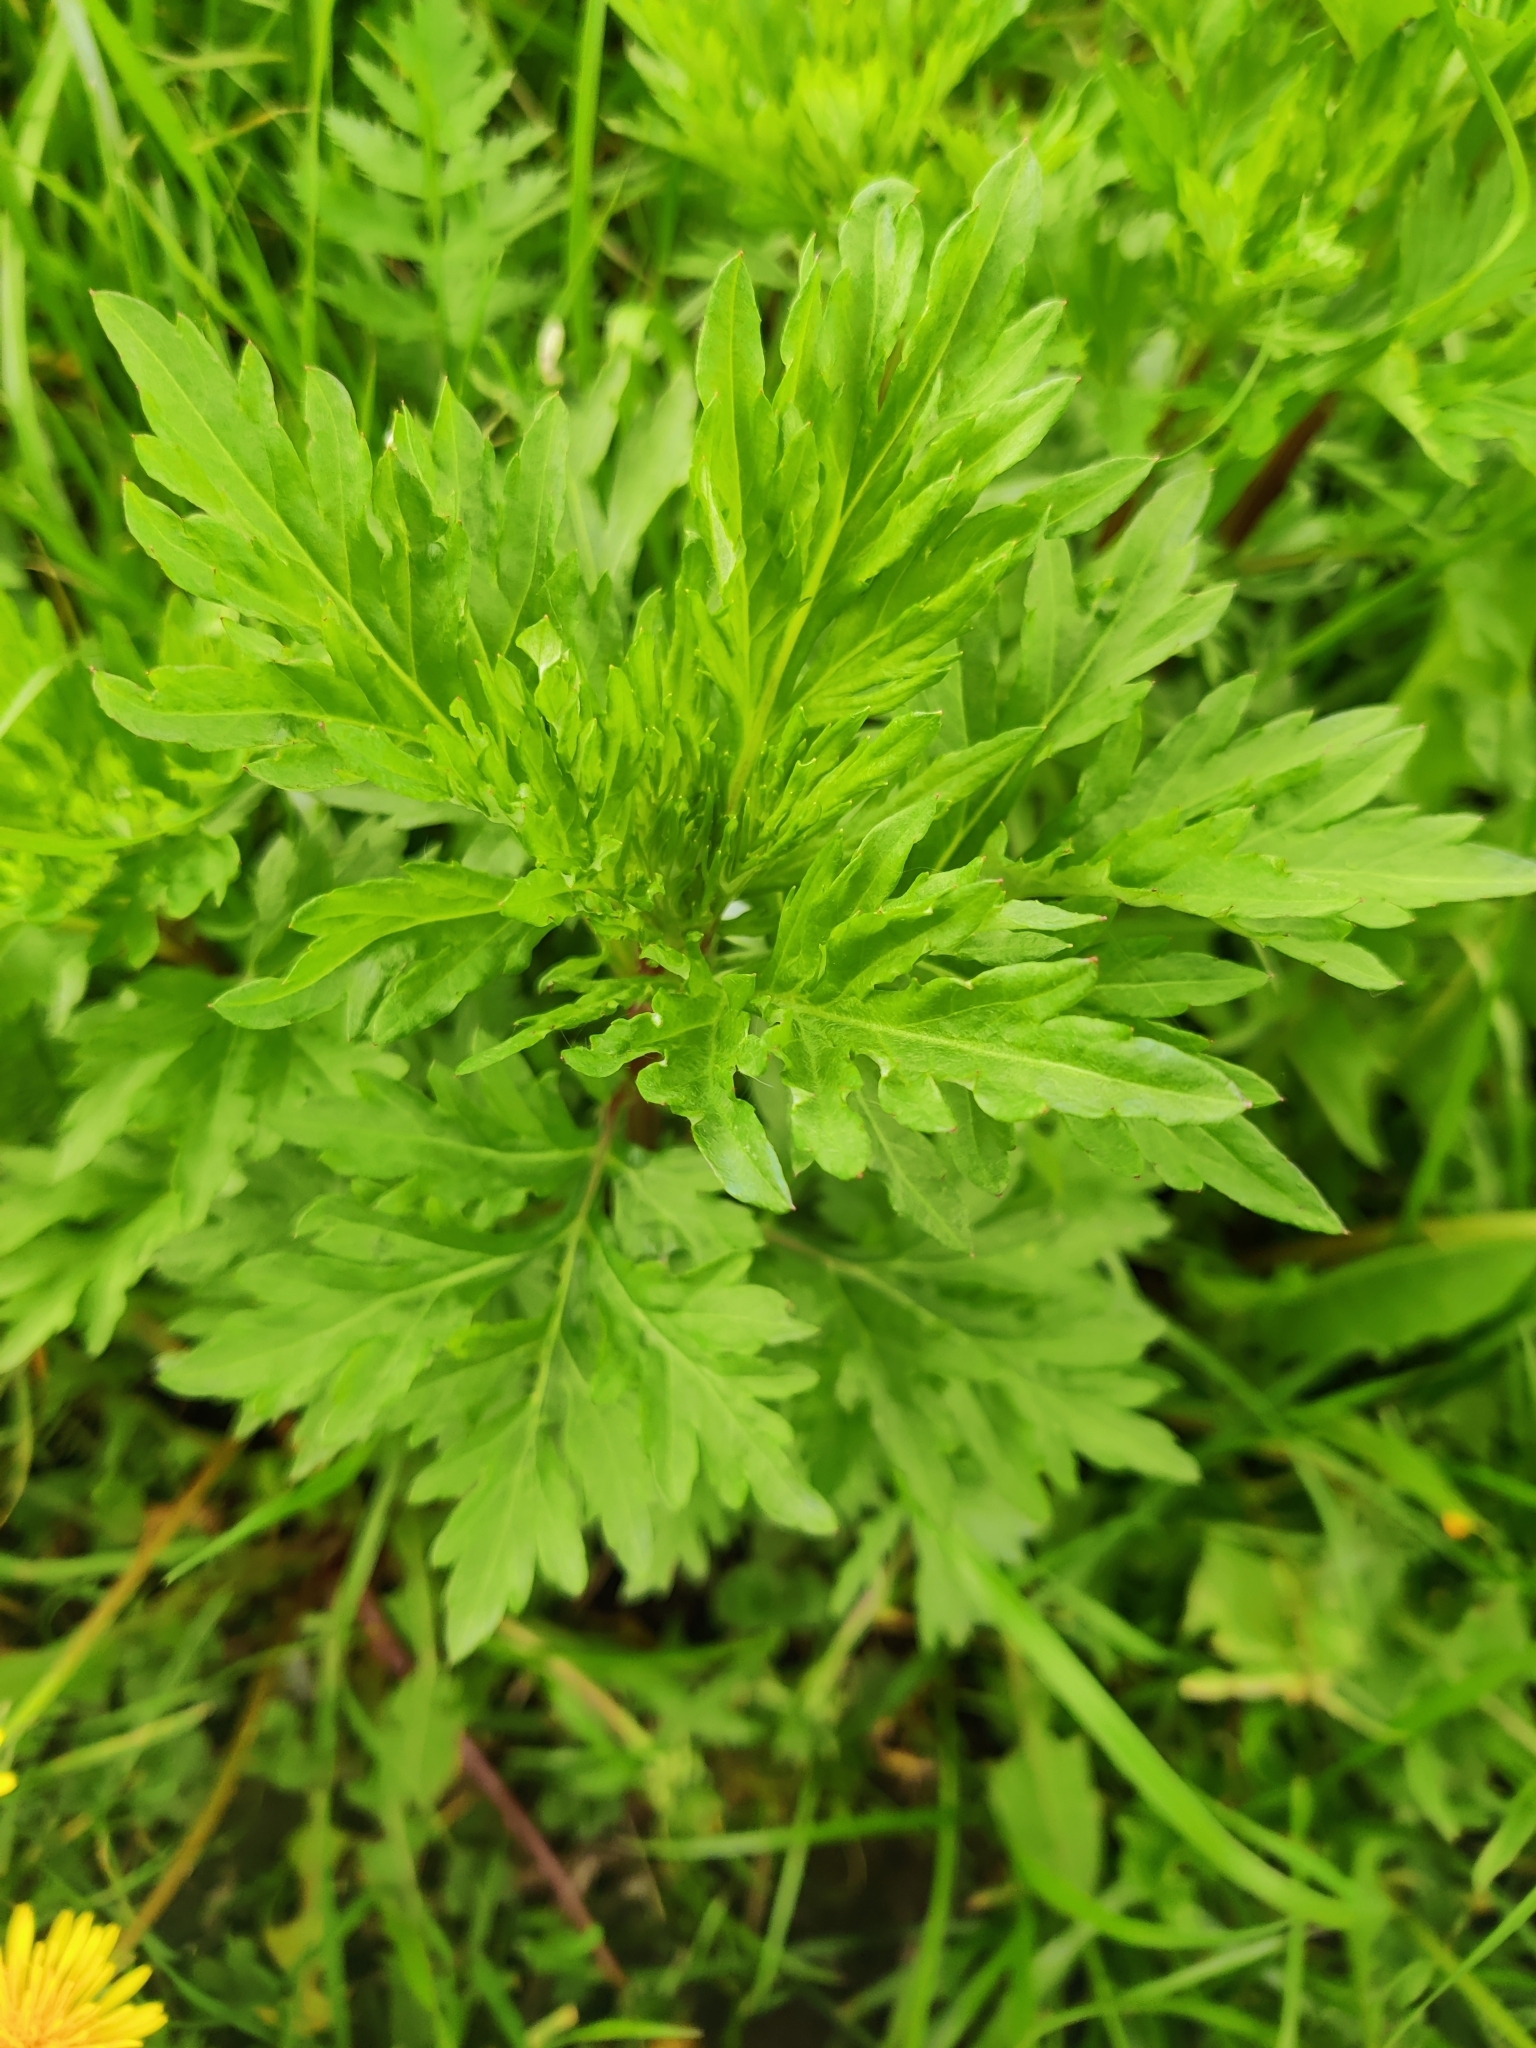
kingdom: Plantae
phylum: Tracheophyta
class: Magnoliopsida
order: Asterales
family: Asteraceae
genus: Artemisia
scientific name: Artemisia vulgaris
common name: Mugwort
